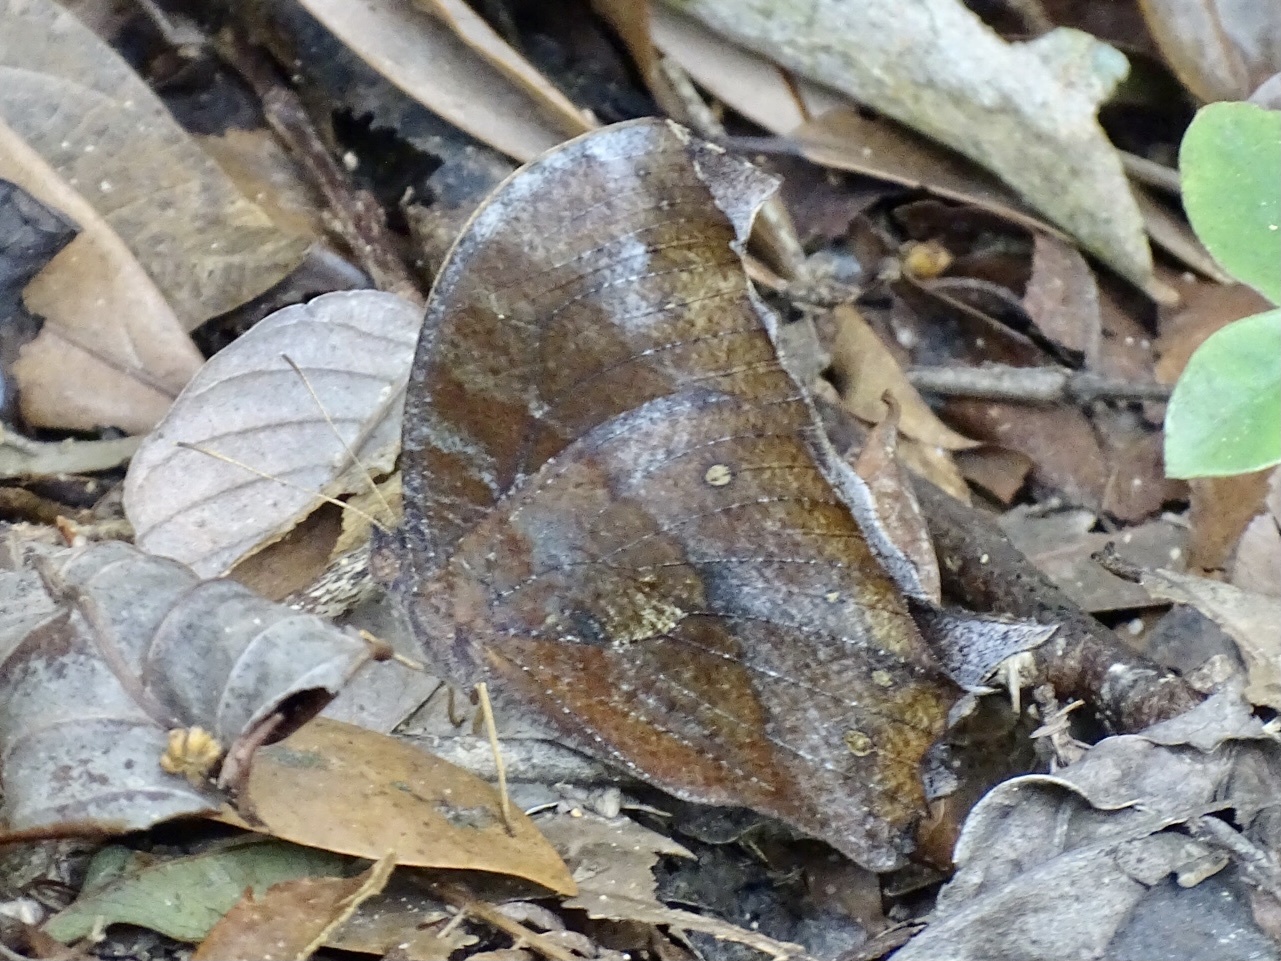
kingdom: Animalia
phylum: Arthropoda
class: Insecta
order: Lepidoptera
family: Nymphalidae
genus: Melanitis
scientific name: Melanitis phedima
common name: Dark evening brown
